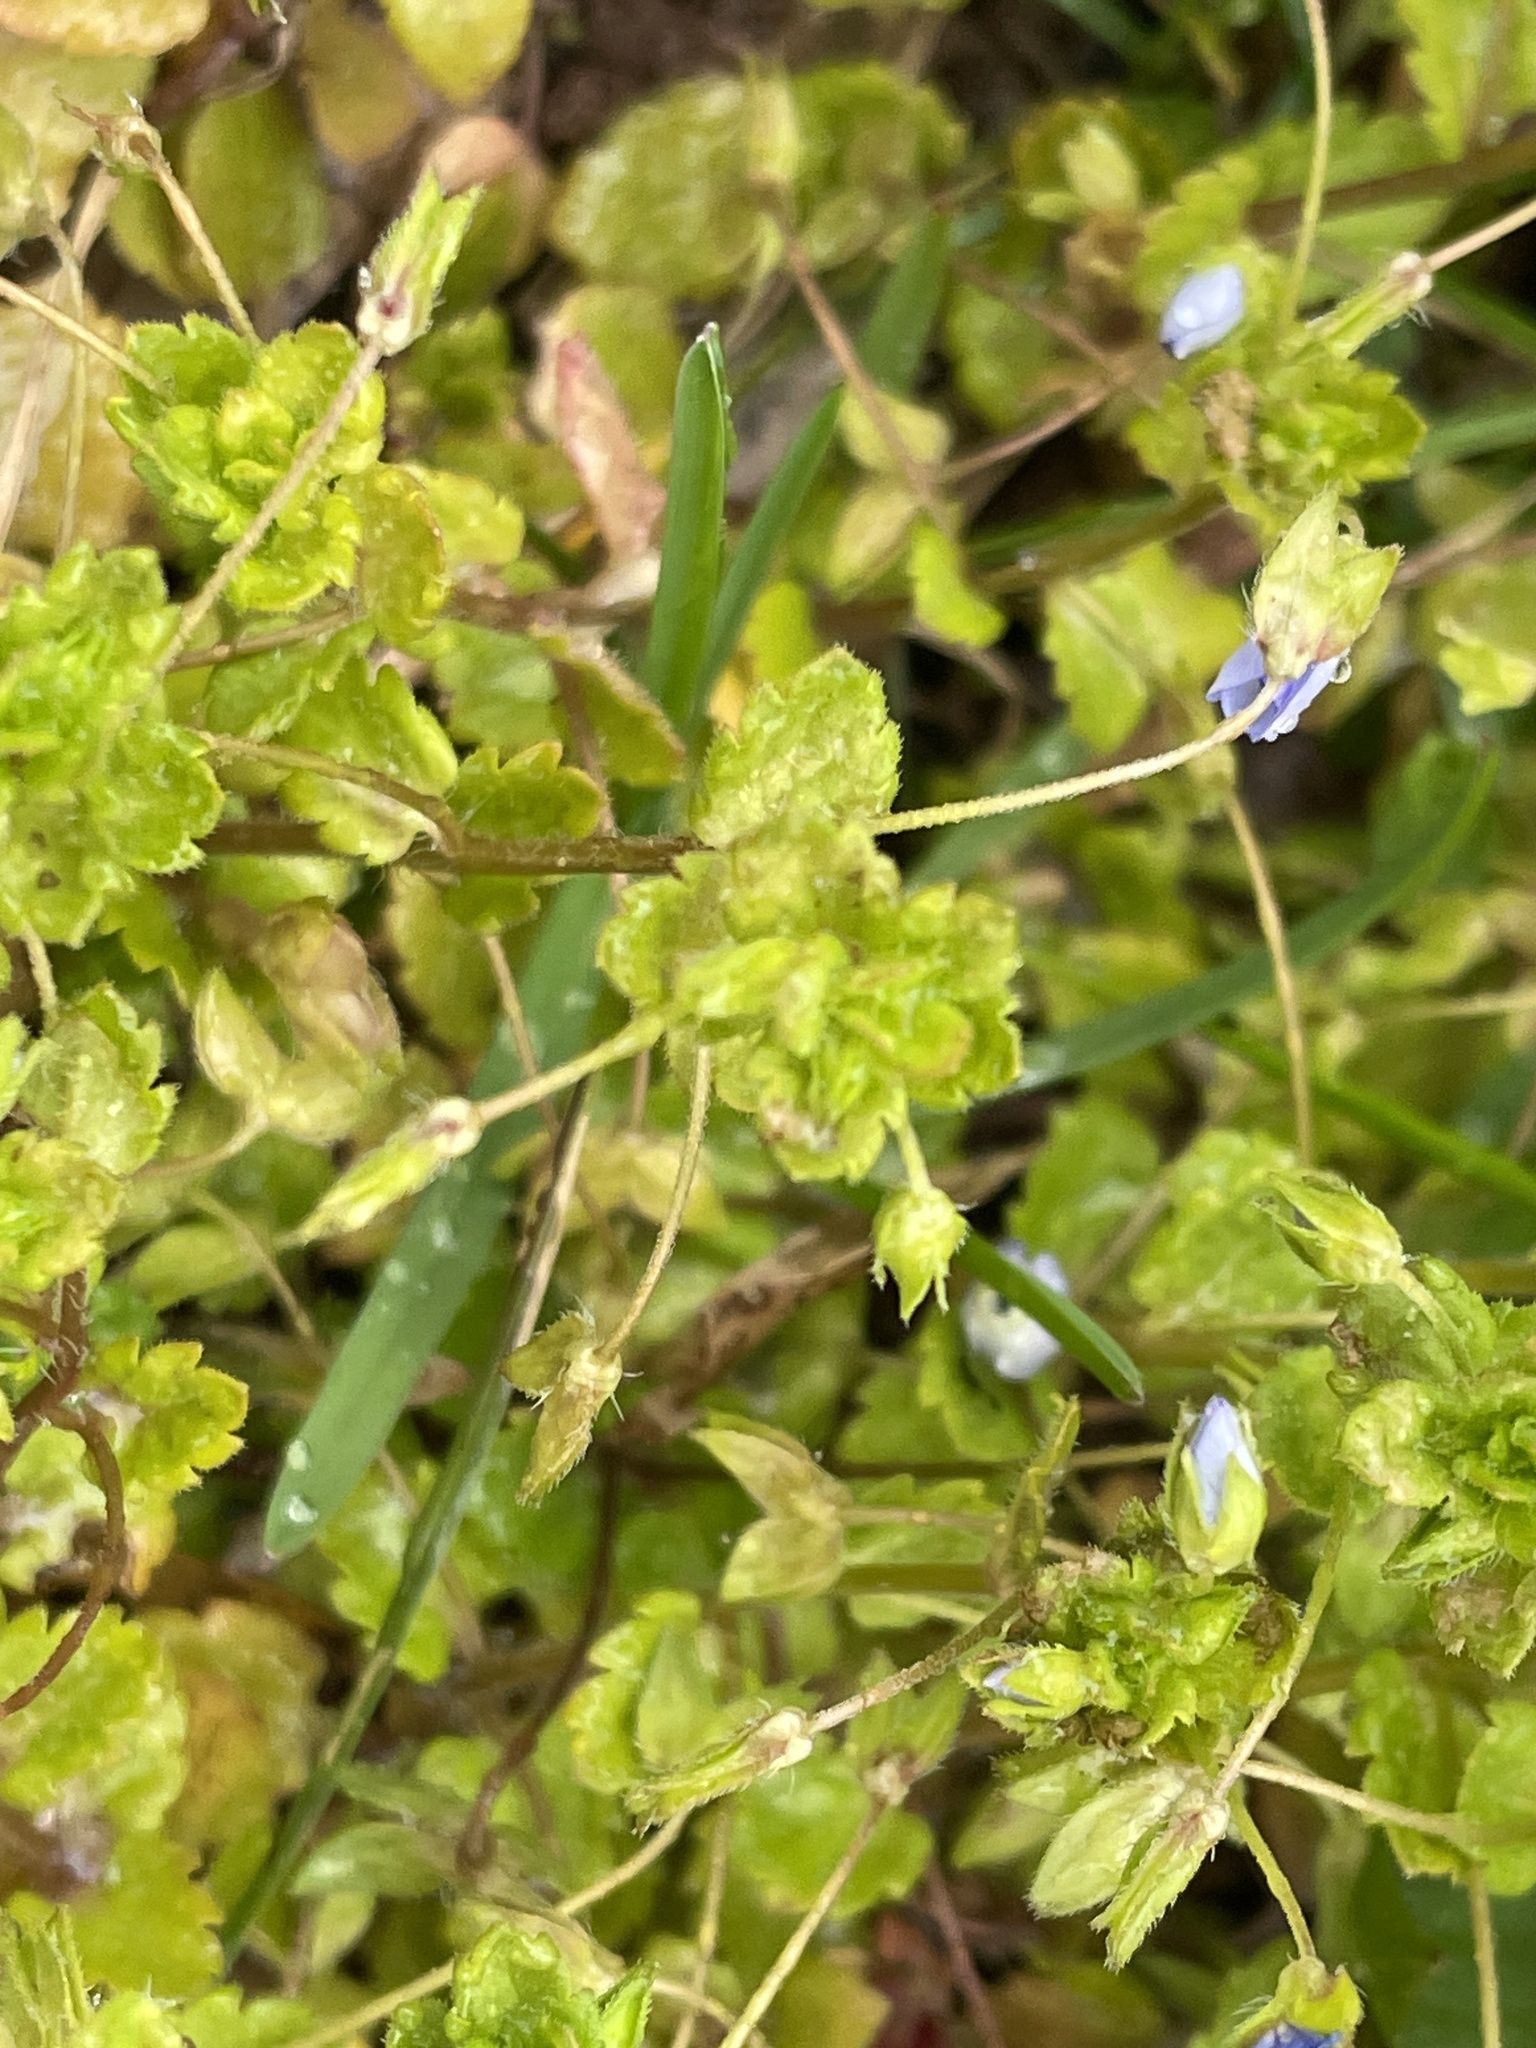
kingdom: Plantae
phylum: Tracheophyta
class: Magnoliopsida
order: Lamiales
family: Plantaginaceae
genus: Veronica
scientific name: Veronica persica
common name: Common field-speedwell
